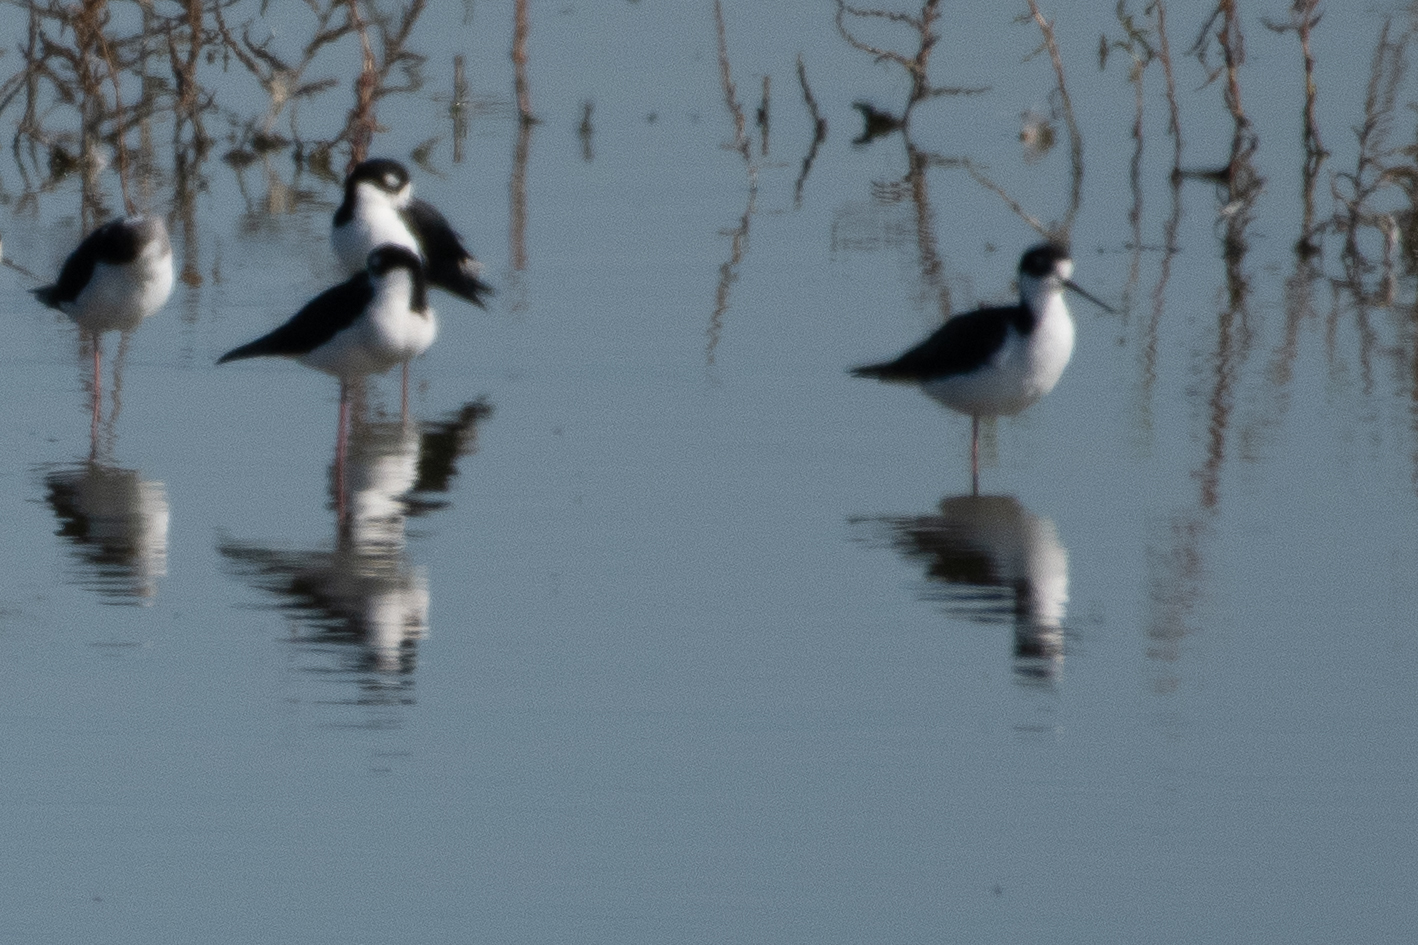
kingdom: Animalia
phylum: Chordata
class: Aves
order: Charadriiformes
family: Recurvirostridae
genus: Himantopus
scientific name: Himantopus mexicanus
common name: Black-necked stilt
